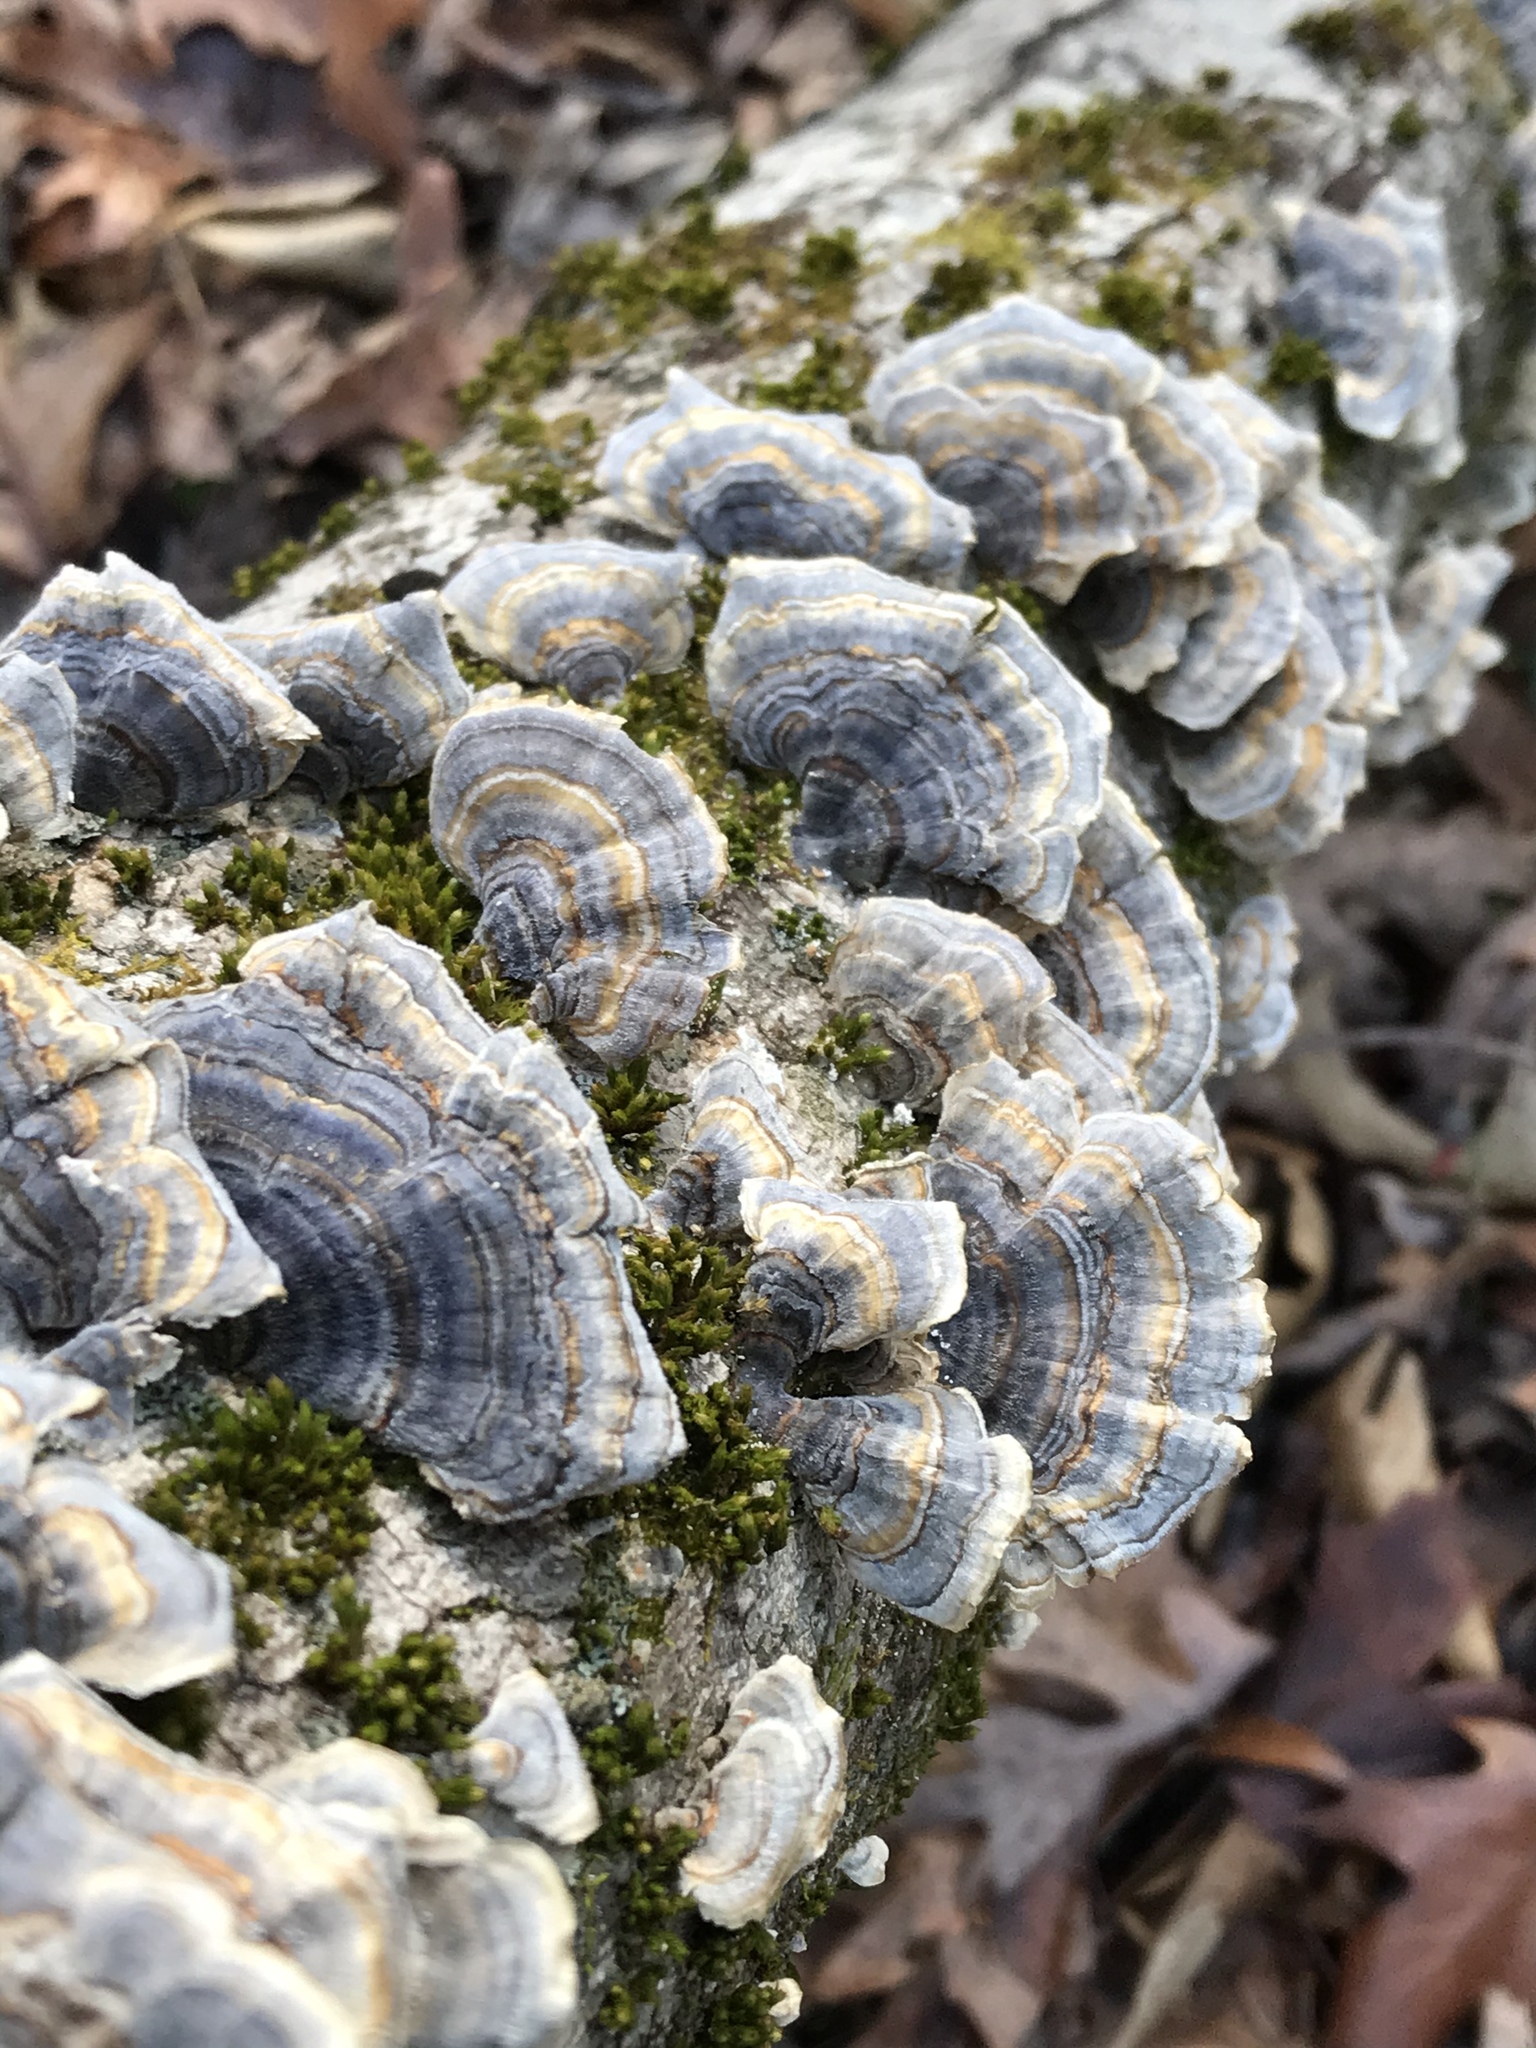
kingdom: Fungi
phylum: Basidiomycota
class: Agaricomycetes
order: Polyporales
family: Polyporaceae
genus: Trametes
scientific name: Trametes versicolor
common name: Turkeytail
